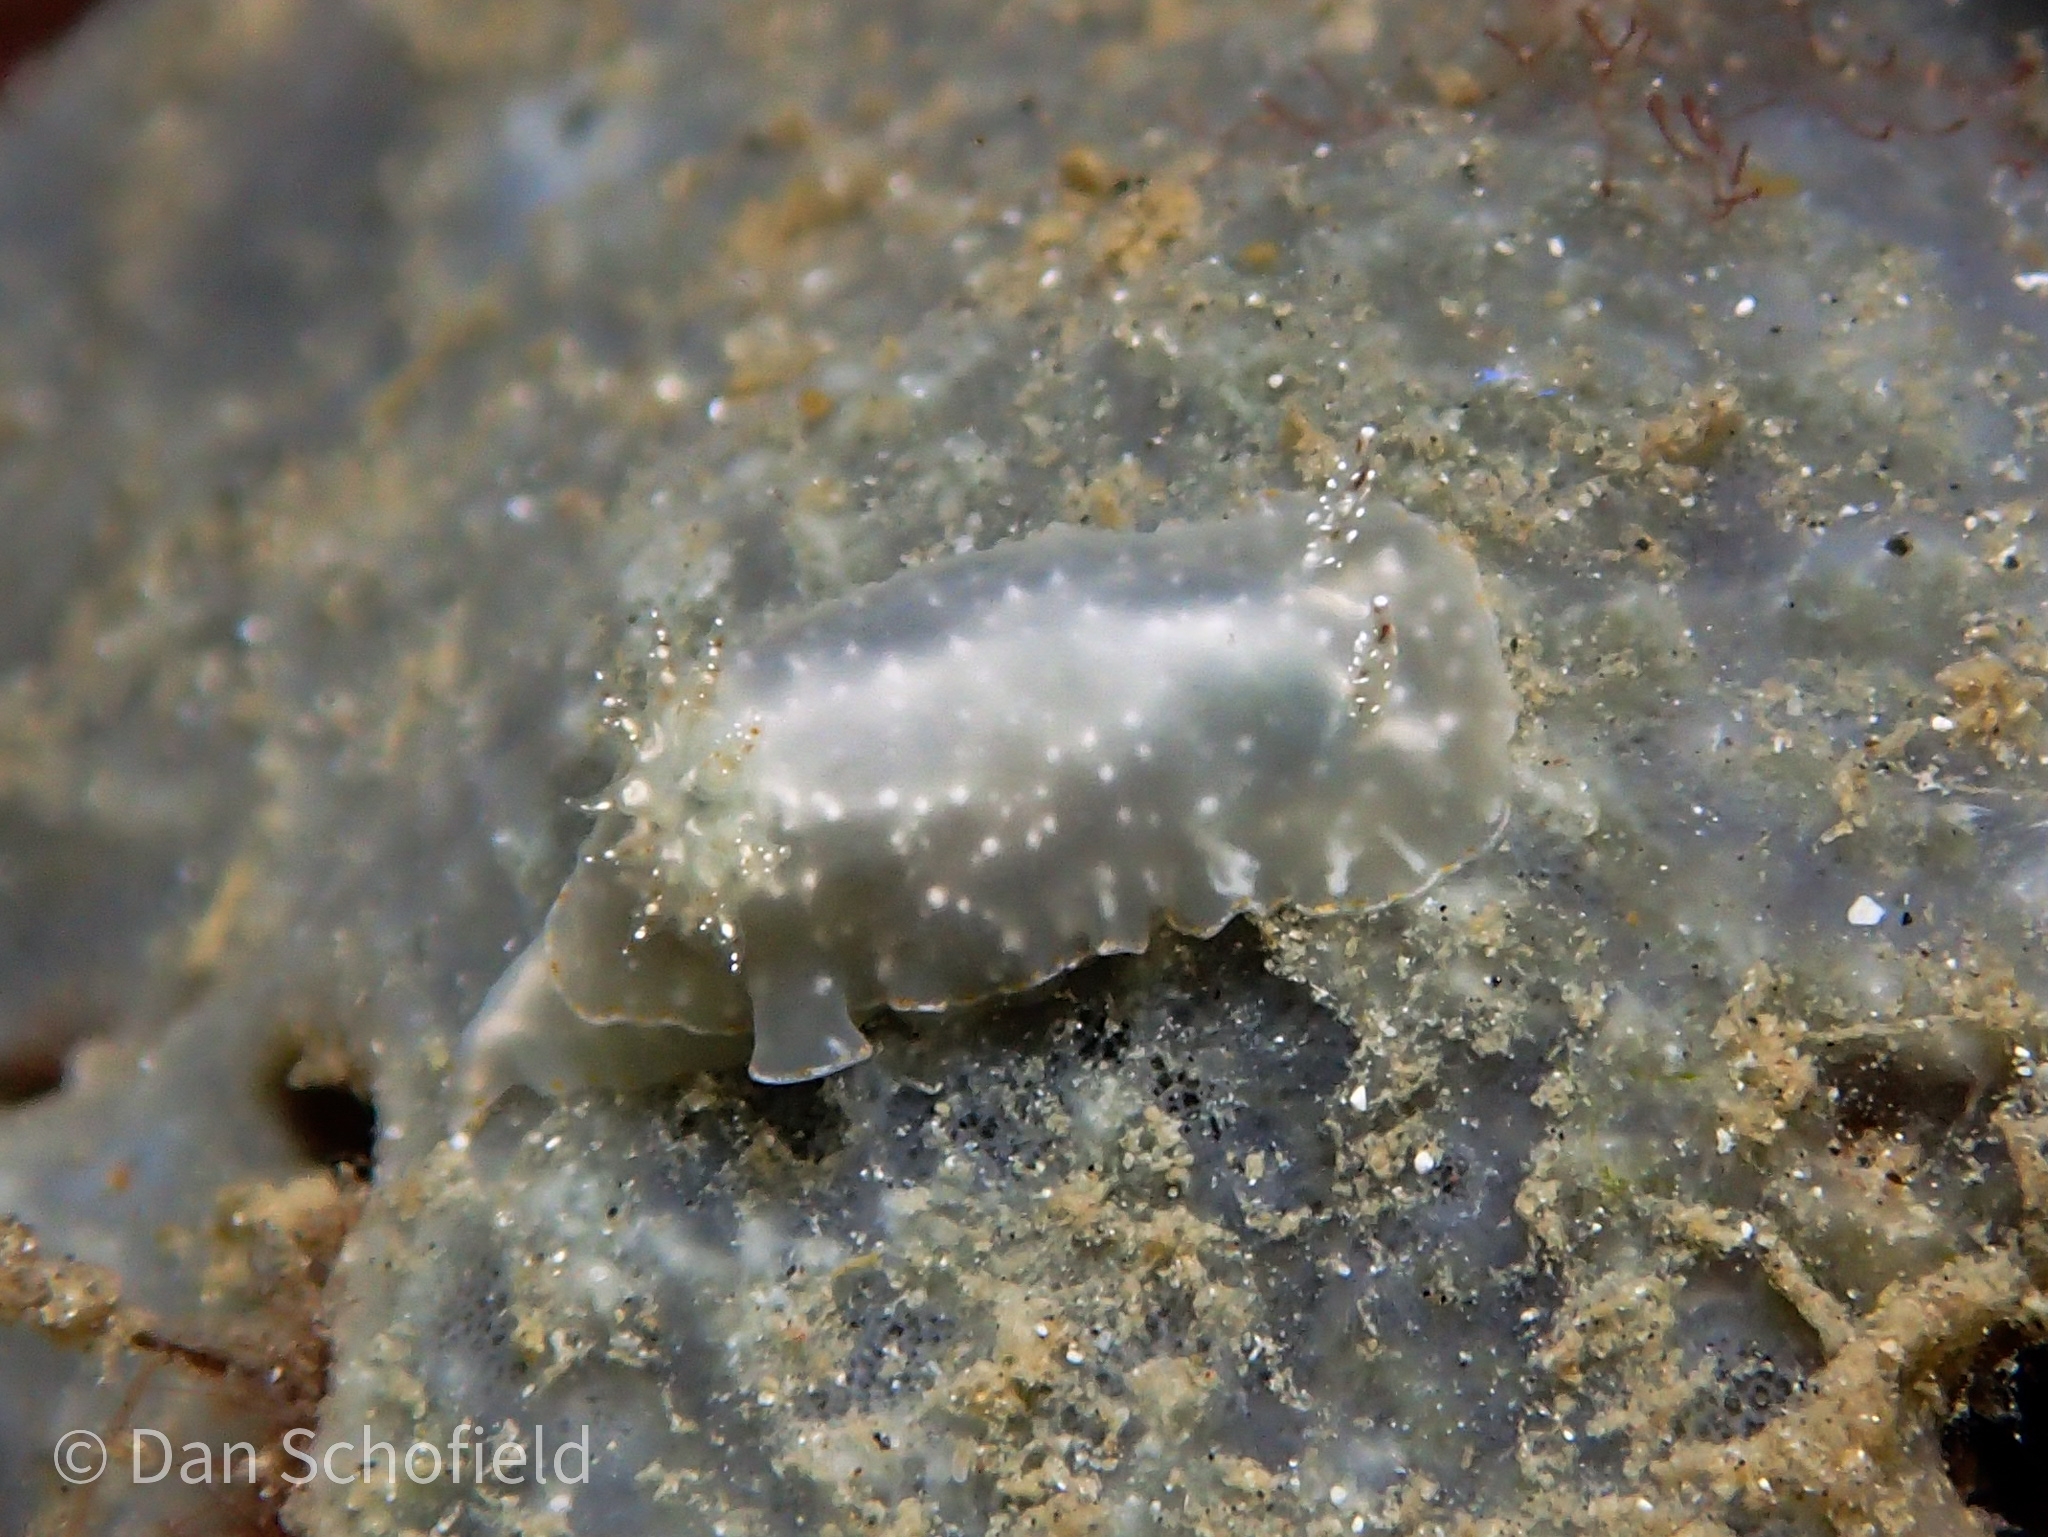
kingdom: Animalia
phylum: Mollusca
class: Gastropoda
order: Nudibranchia
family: Chromodorididae
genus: Chromodoris
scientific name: Chromodoris kalawakan
